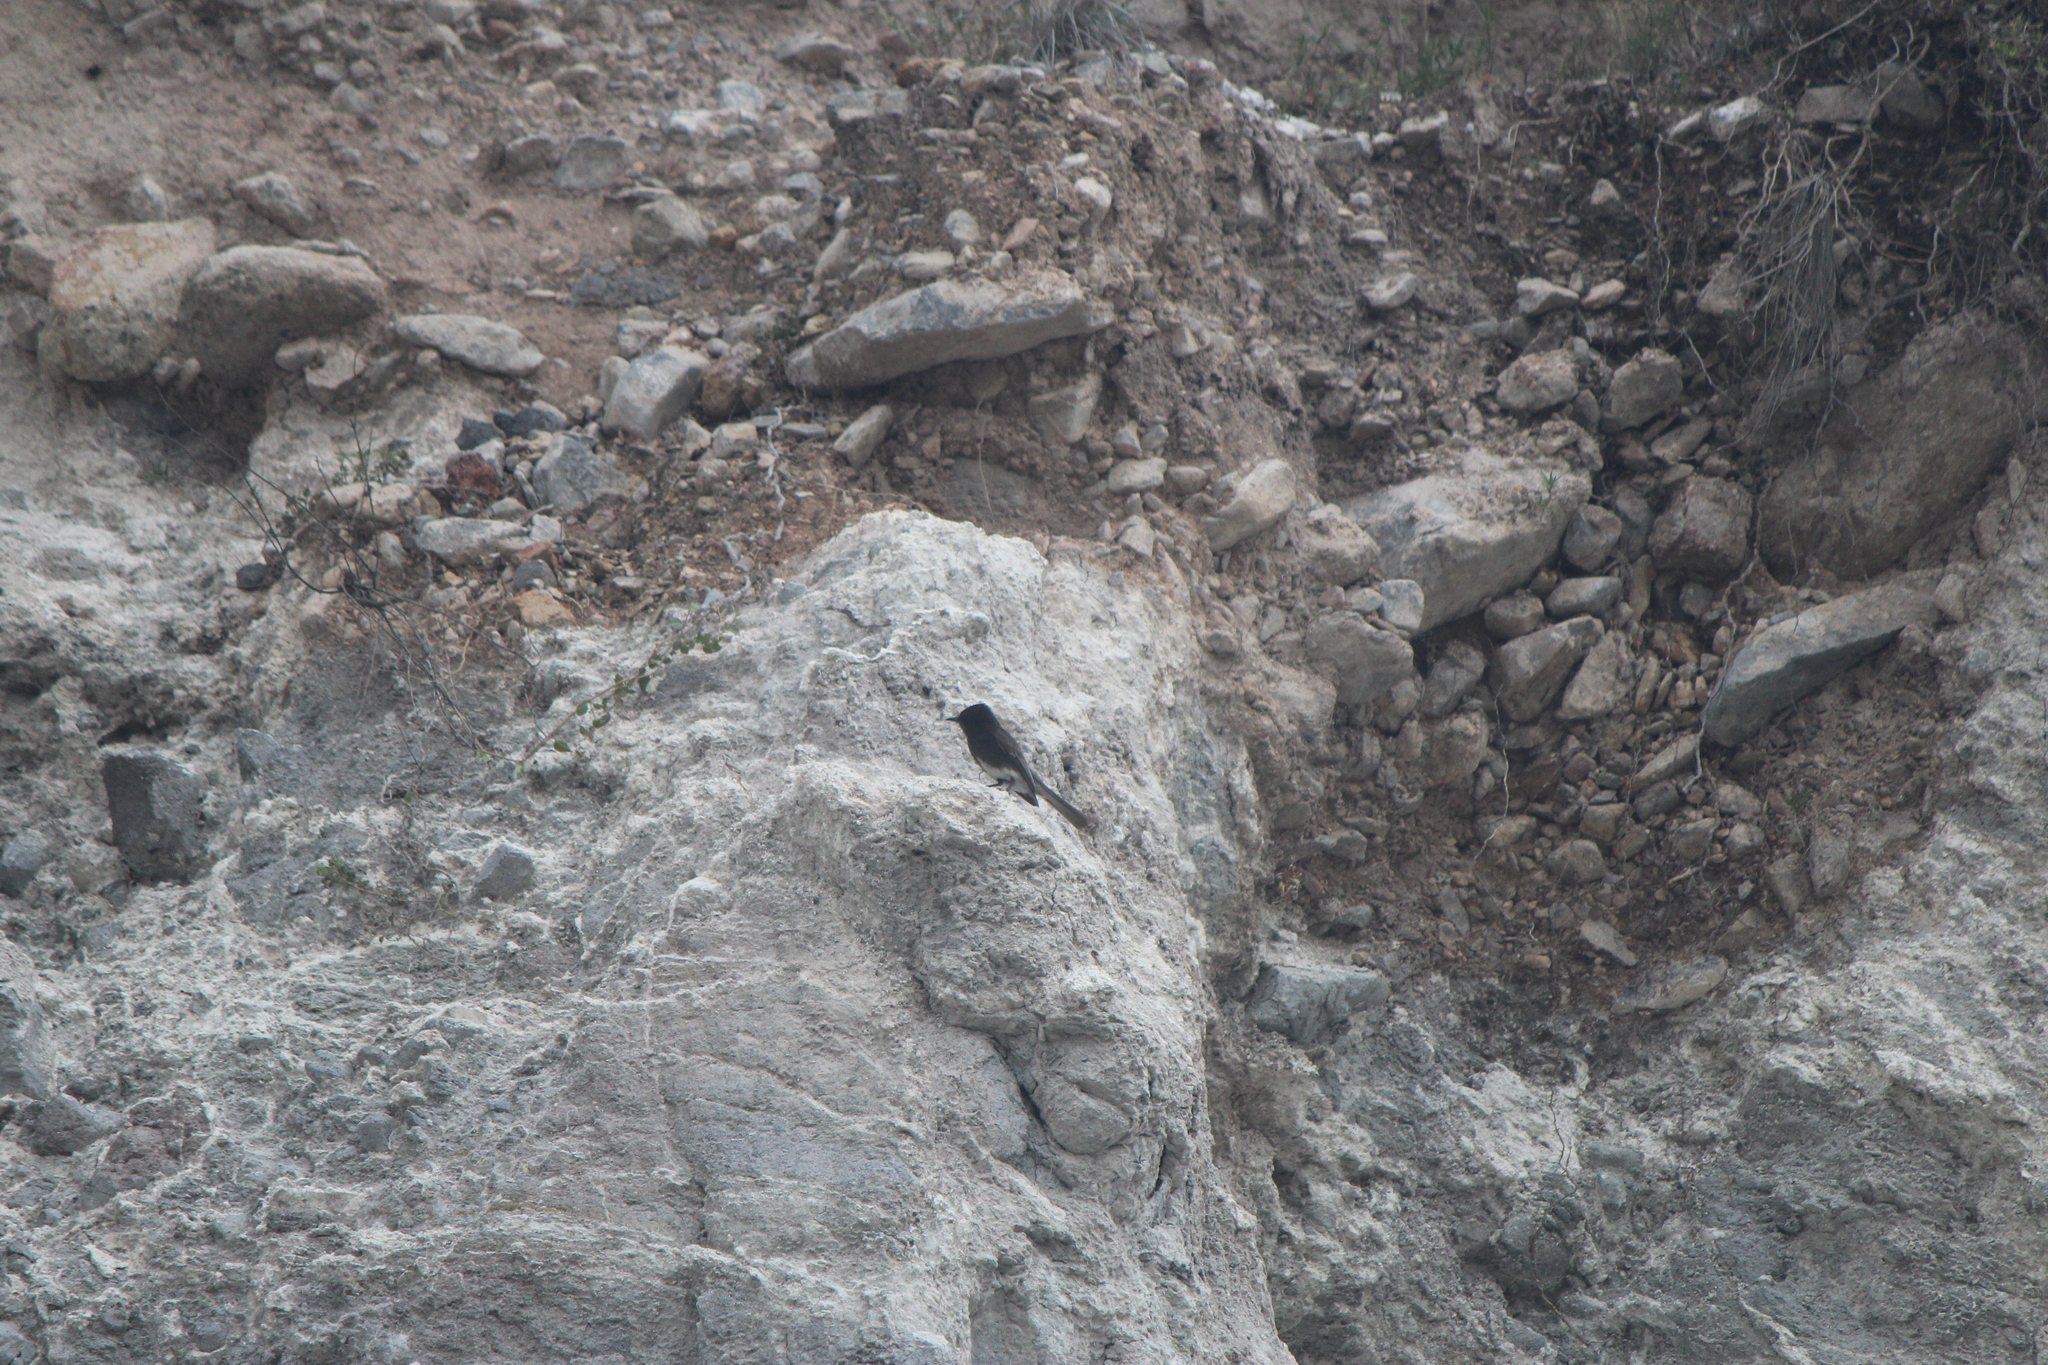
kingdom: Animalia
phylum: Chordata
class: Aves
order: Passeriformes
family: Tyrannidae
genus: Sayornis
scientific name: Sayornis nigricans
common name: Black phoebe
